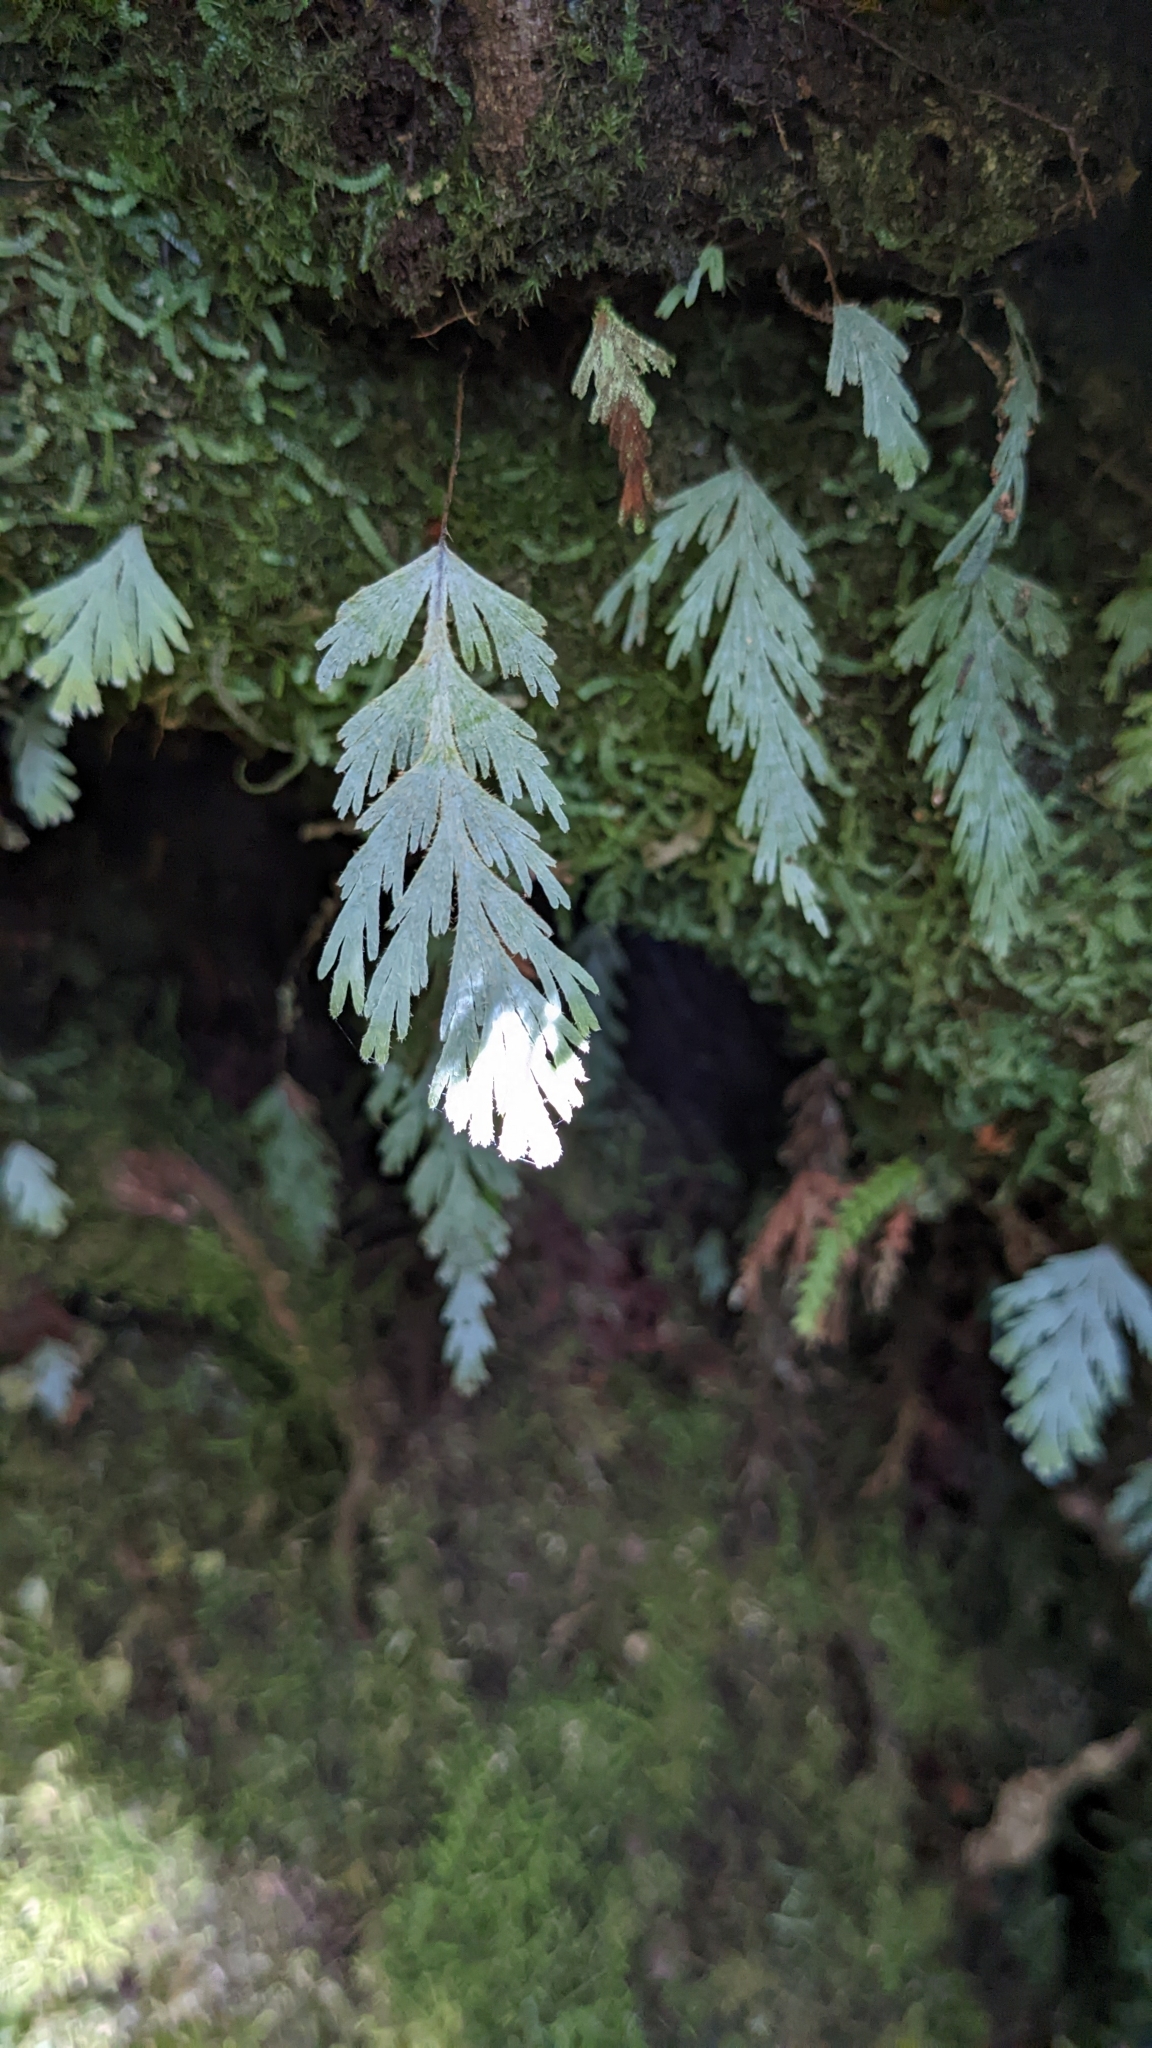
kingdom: Plantae
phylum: Tracheophyta
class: Polypodiopsida
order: Hymenophyllales
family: Hymenophyllaceae
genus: Hymenophyllum
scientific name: Hymenophyllum pallidum
